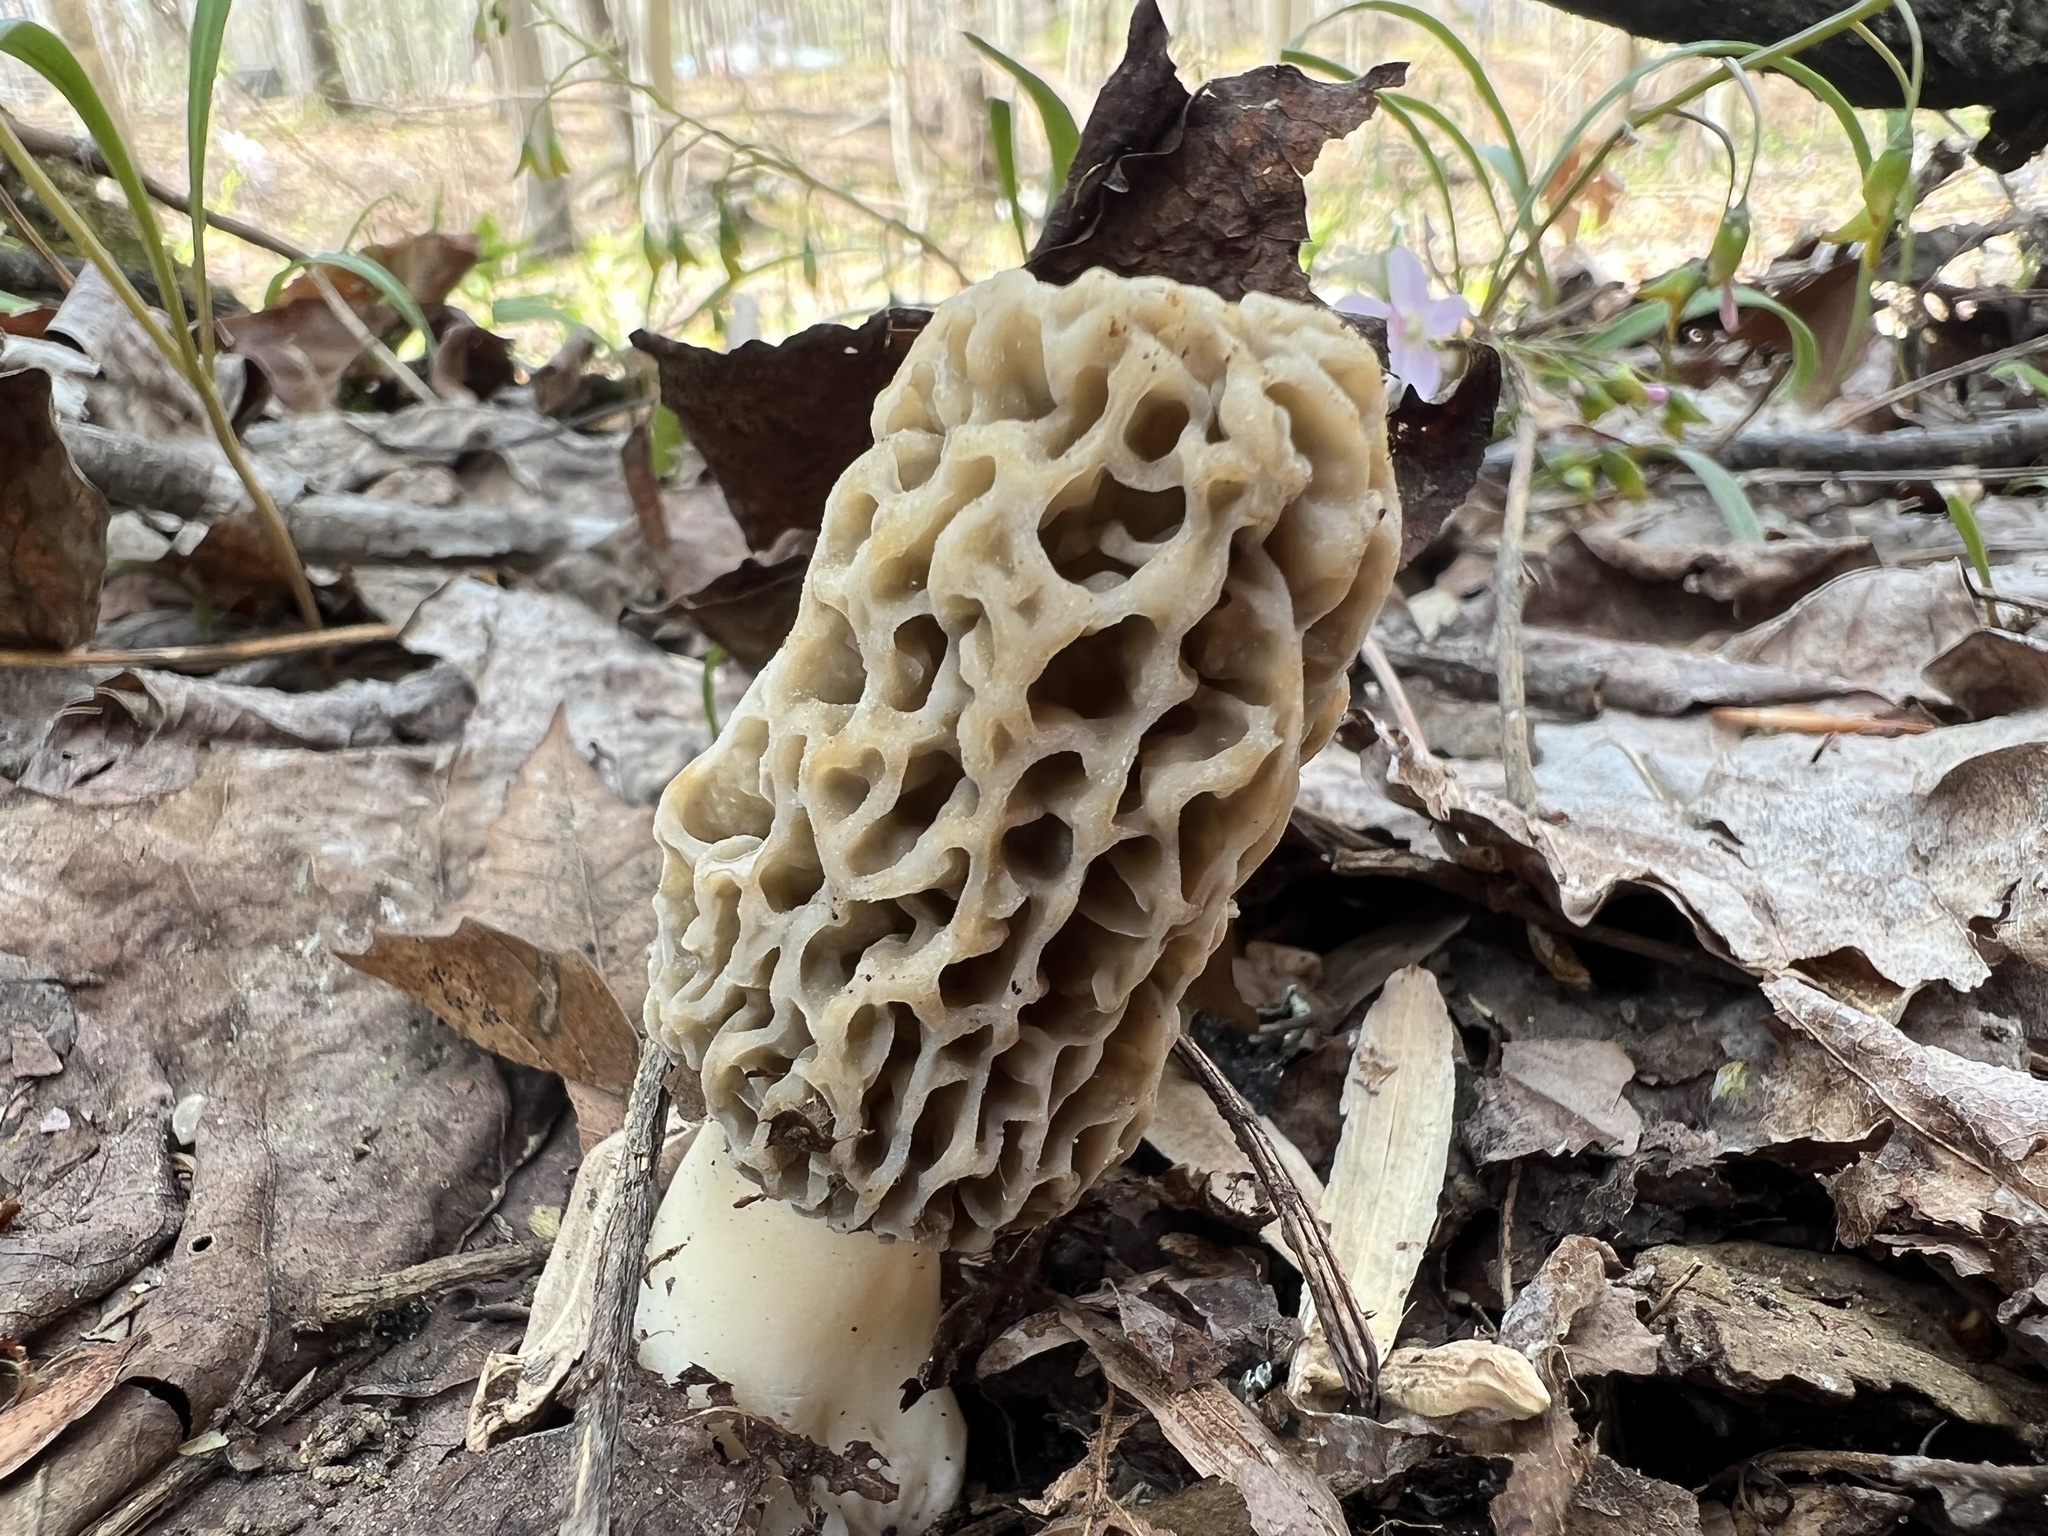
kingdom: Fungi
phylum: Ascomycota
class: Pezizomycetes
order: Pezizales
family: Morchellaceae
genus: Morchella
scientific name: Morchella americana
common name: White morel
